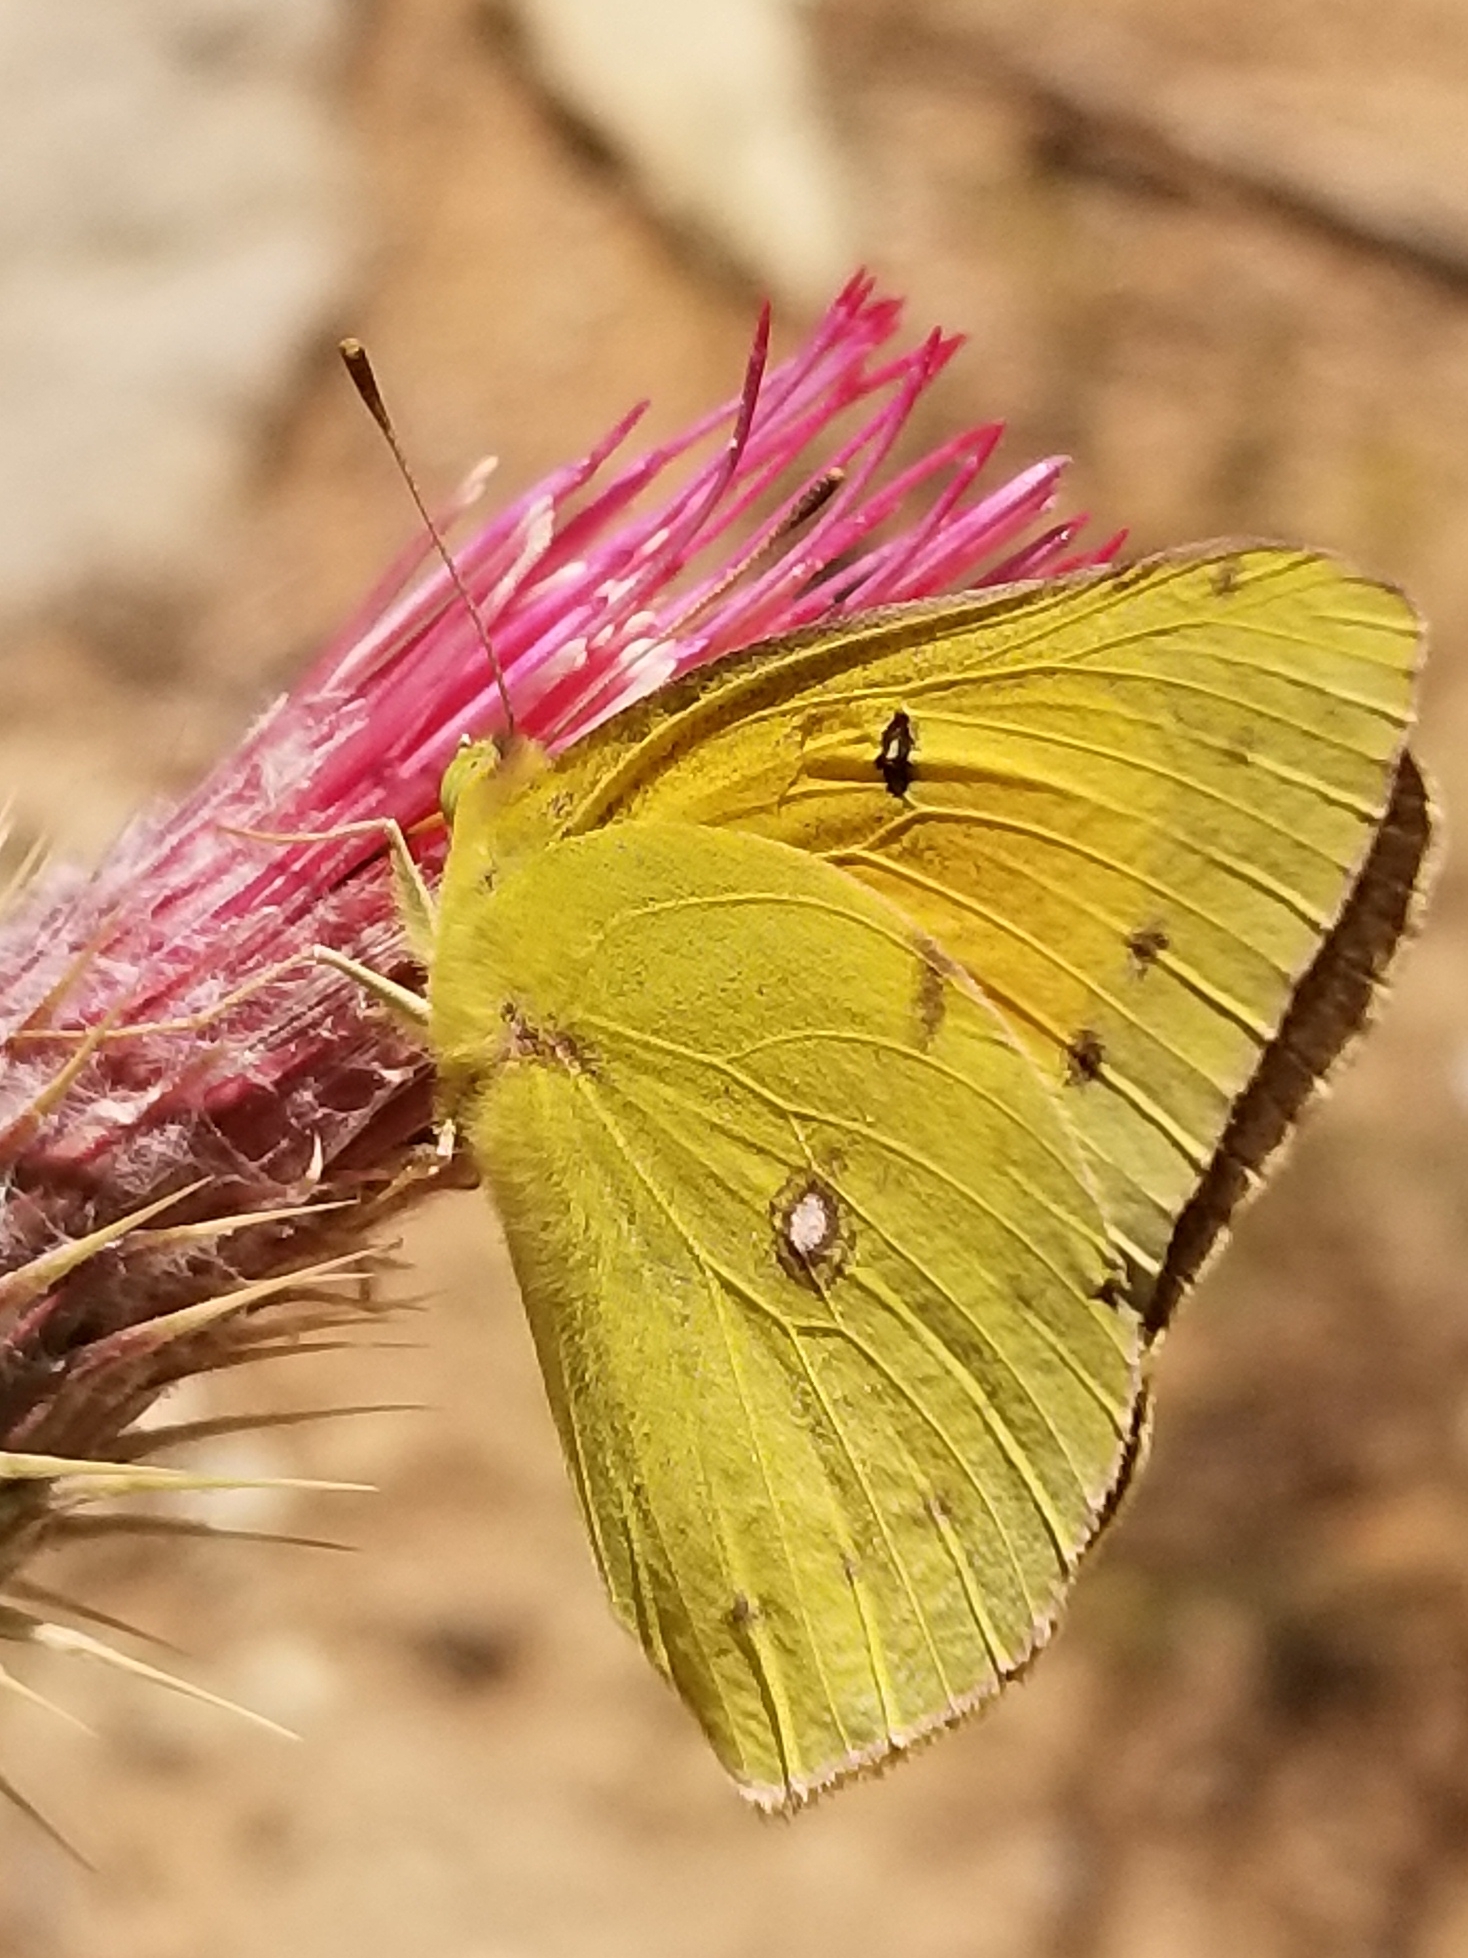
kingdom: Animalia
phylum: Arthropoda
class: Insecta
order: Lepidoptera
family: Pieridae
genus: Colias
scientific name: Colias eurytheme
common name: Alfalfa butterfly
